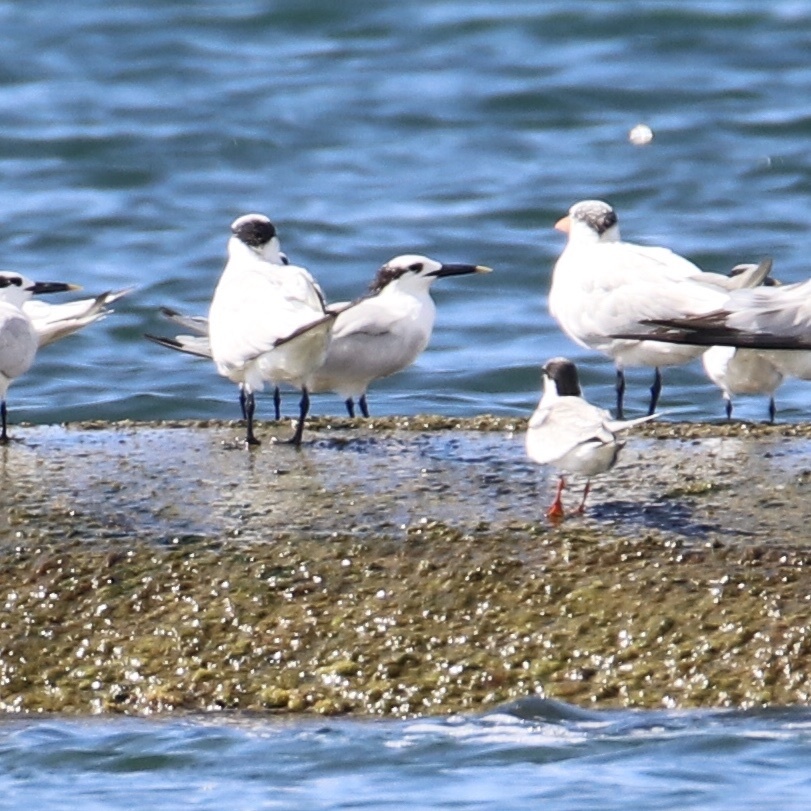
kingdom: Animalia
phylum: Chordata
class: Aves
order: Charadriiformes
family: Laridae
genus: Thalasseus
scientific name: Thalasseus sandvicensis
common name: Sandwich tern
